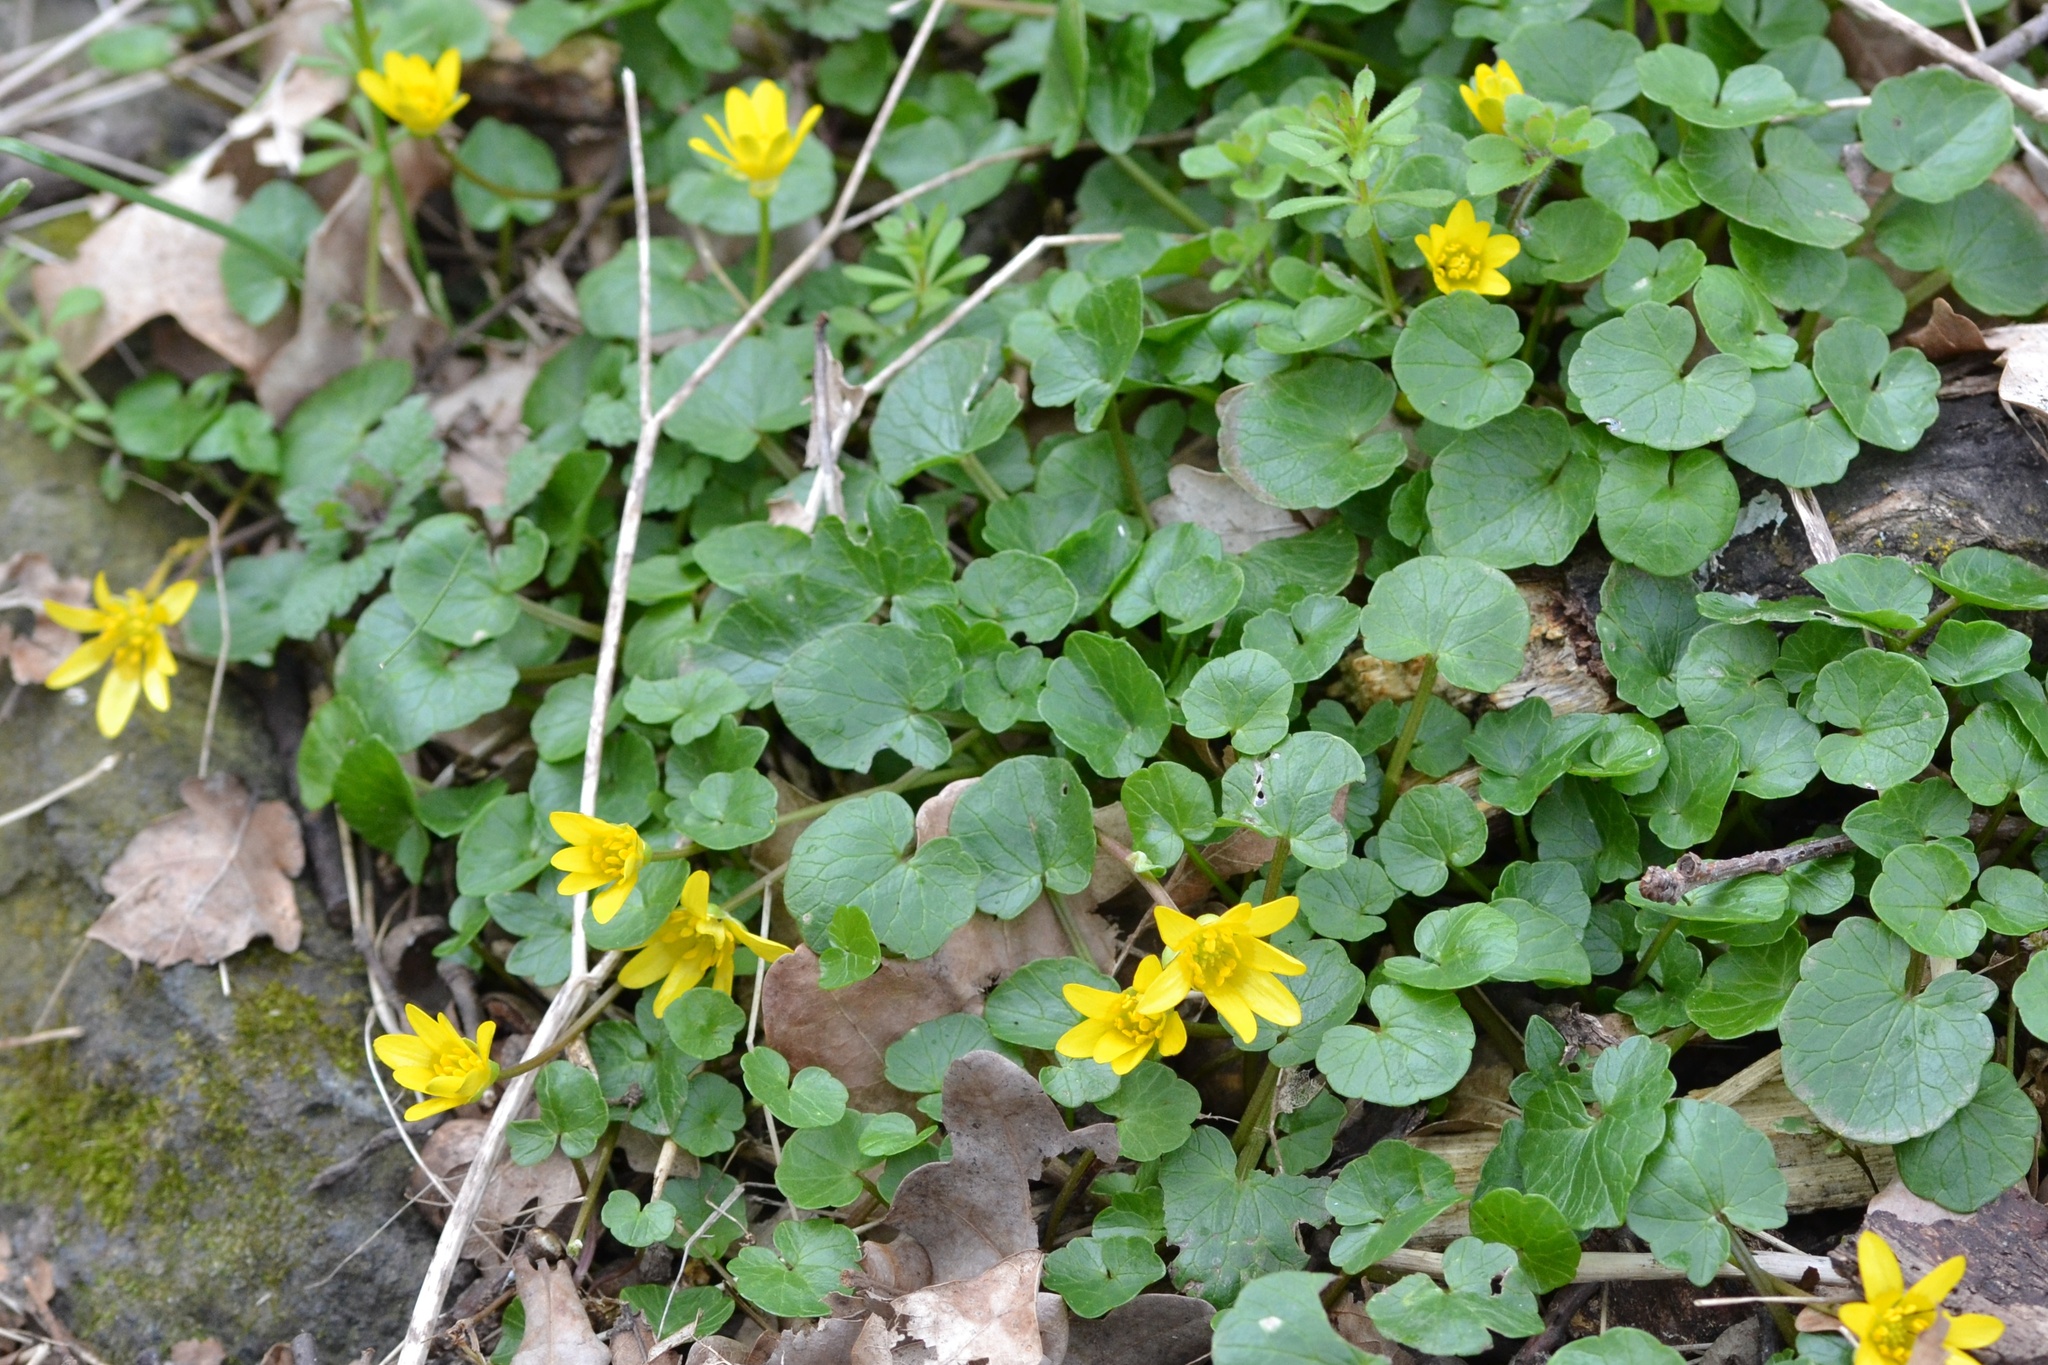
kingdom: Plantae
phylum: Tracheophyta
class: Magnoliopsida
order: Ranunculales
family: Ranunculaceae
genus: Ficaria
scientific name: Ficaria verna
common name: Lesser celandine
